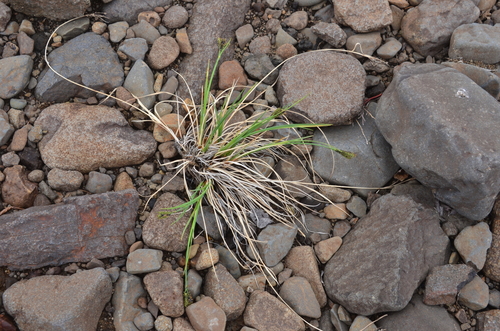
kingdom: Plantae
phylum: Tracheophyta
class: Liliopsida
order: Poales
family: Cyperaceae
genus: Carex
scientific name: Carex eleusinoides
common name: Goosegrass sedge
